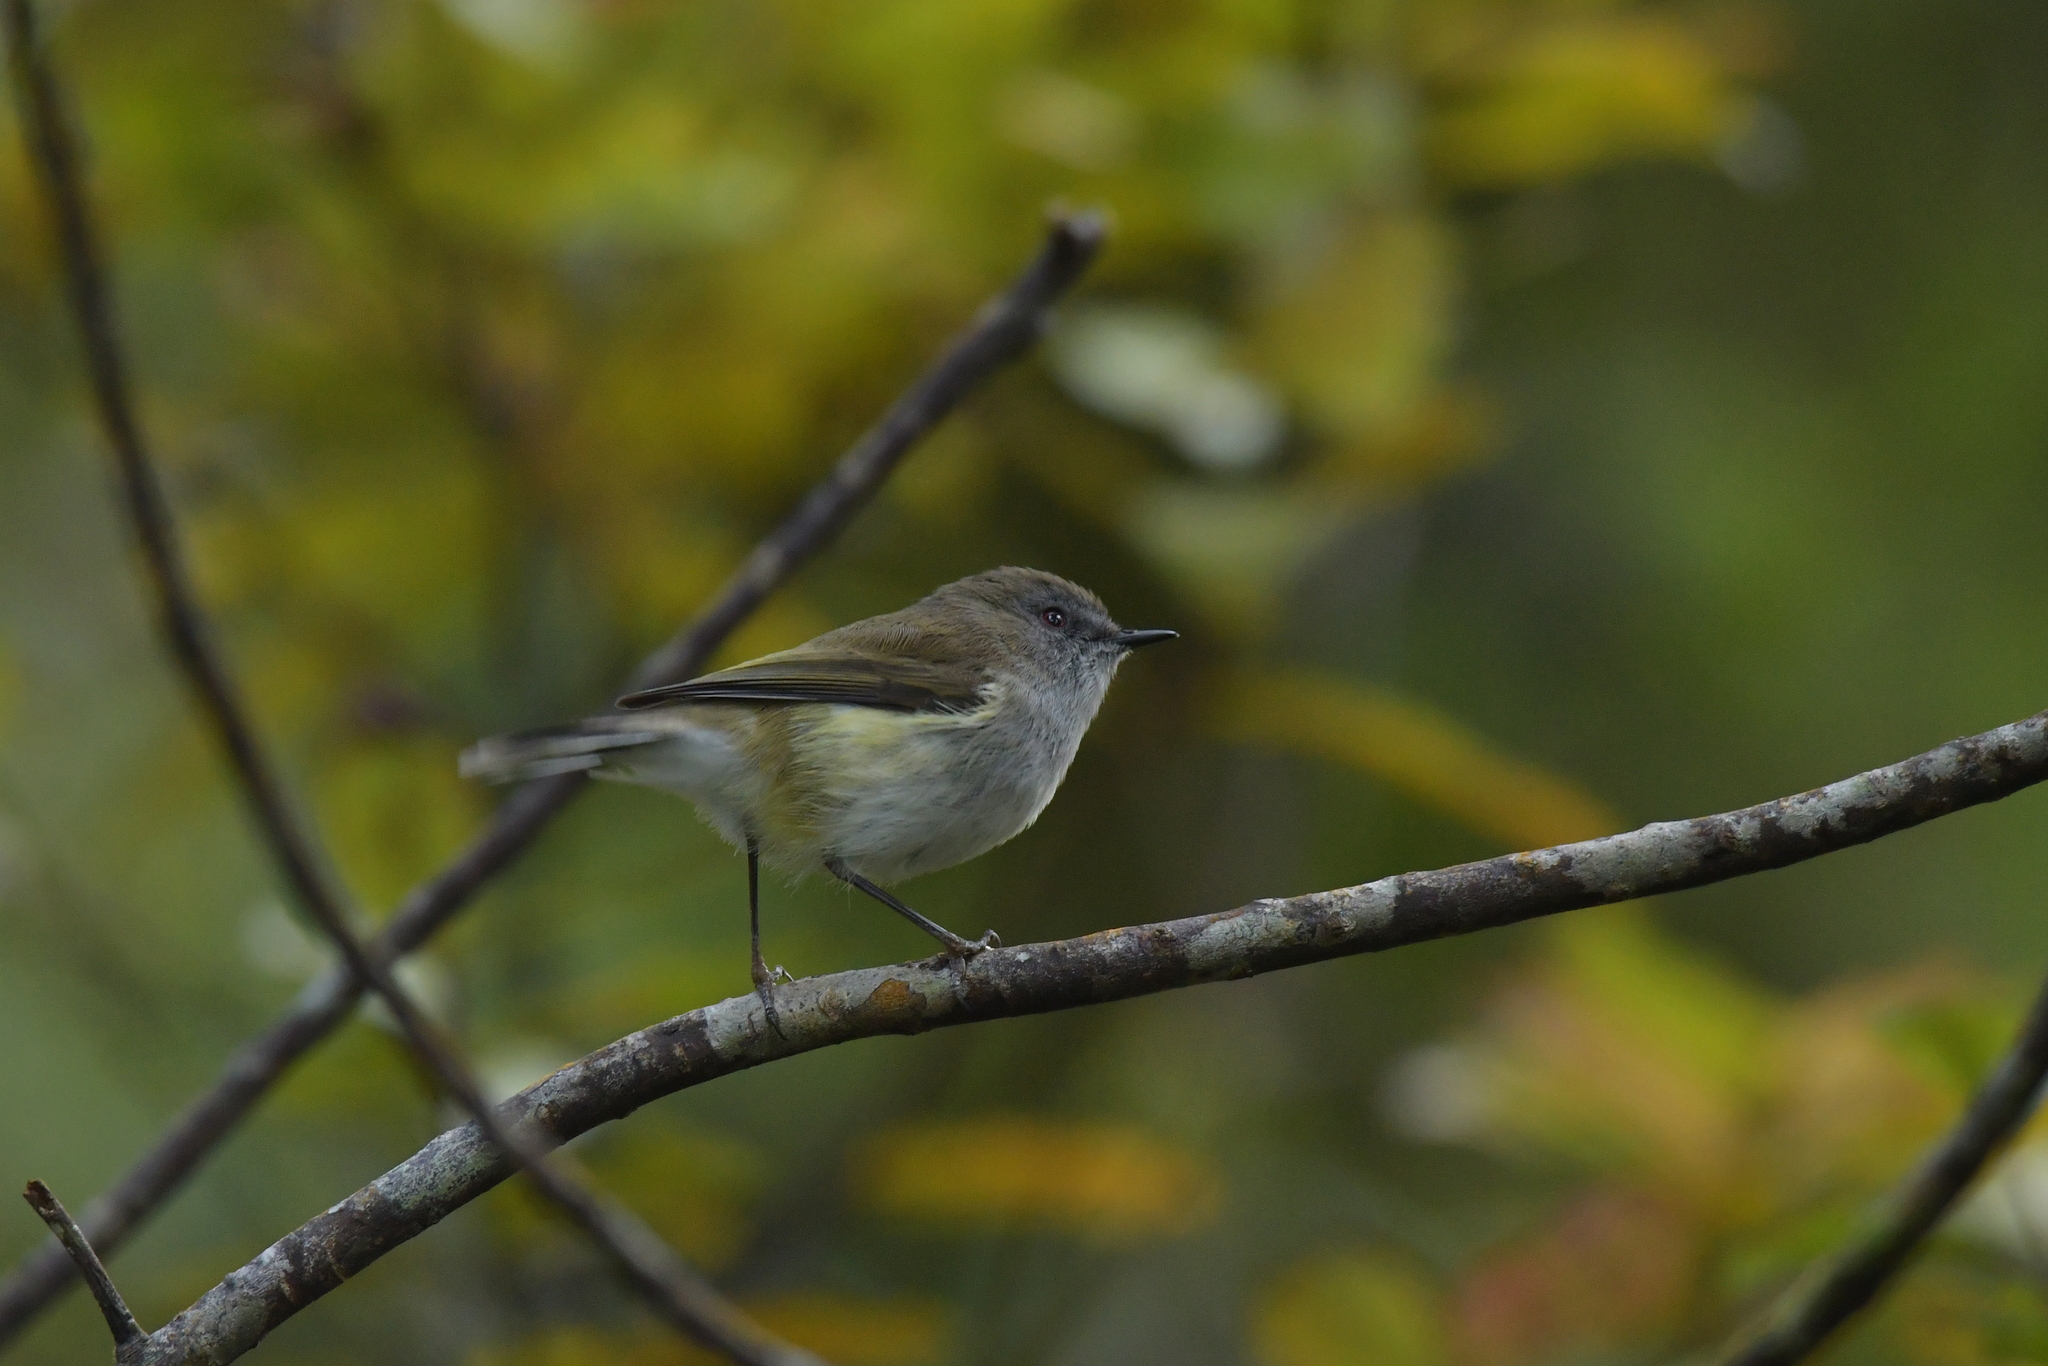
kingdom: Animalia
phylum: Chordata
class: Aves
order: Passeriformes
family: Acanthizidae
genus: Gerygone
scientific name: Gerygone igata
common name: Grey gerygone
